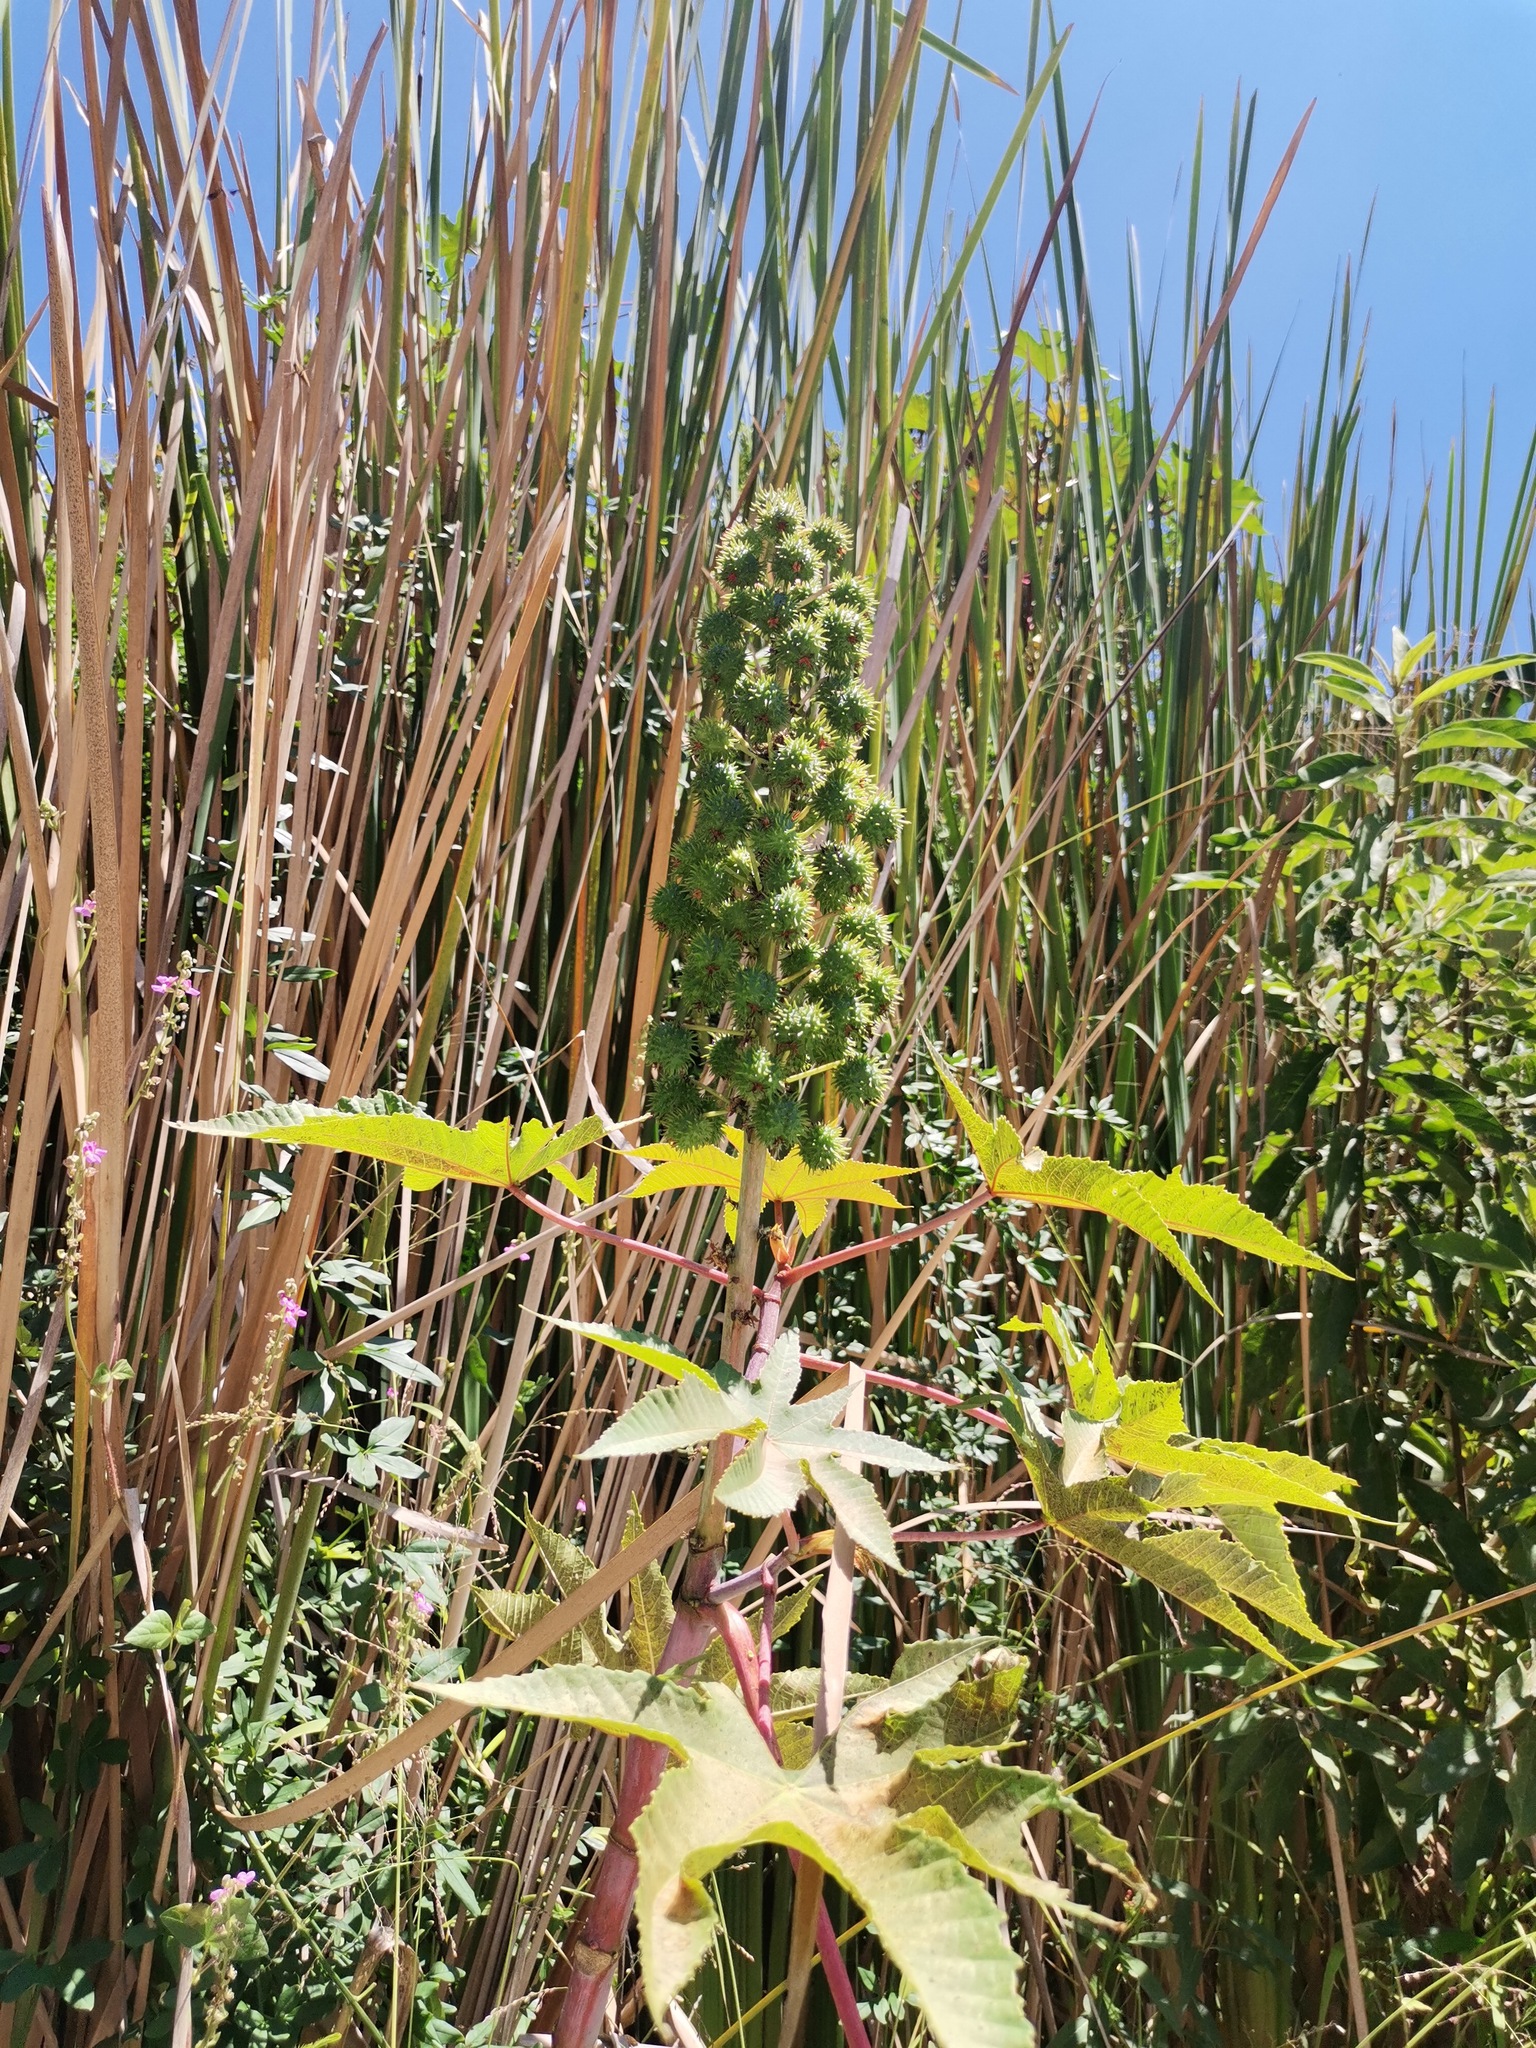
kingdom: Plantae
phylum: Tracheophyta
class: Magnoliopsida
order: Malpighiales
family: Euphorbiaceae
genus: Ricinus
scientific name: Ricinus communis
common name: Castor-oil-plant
